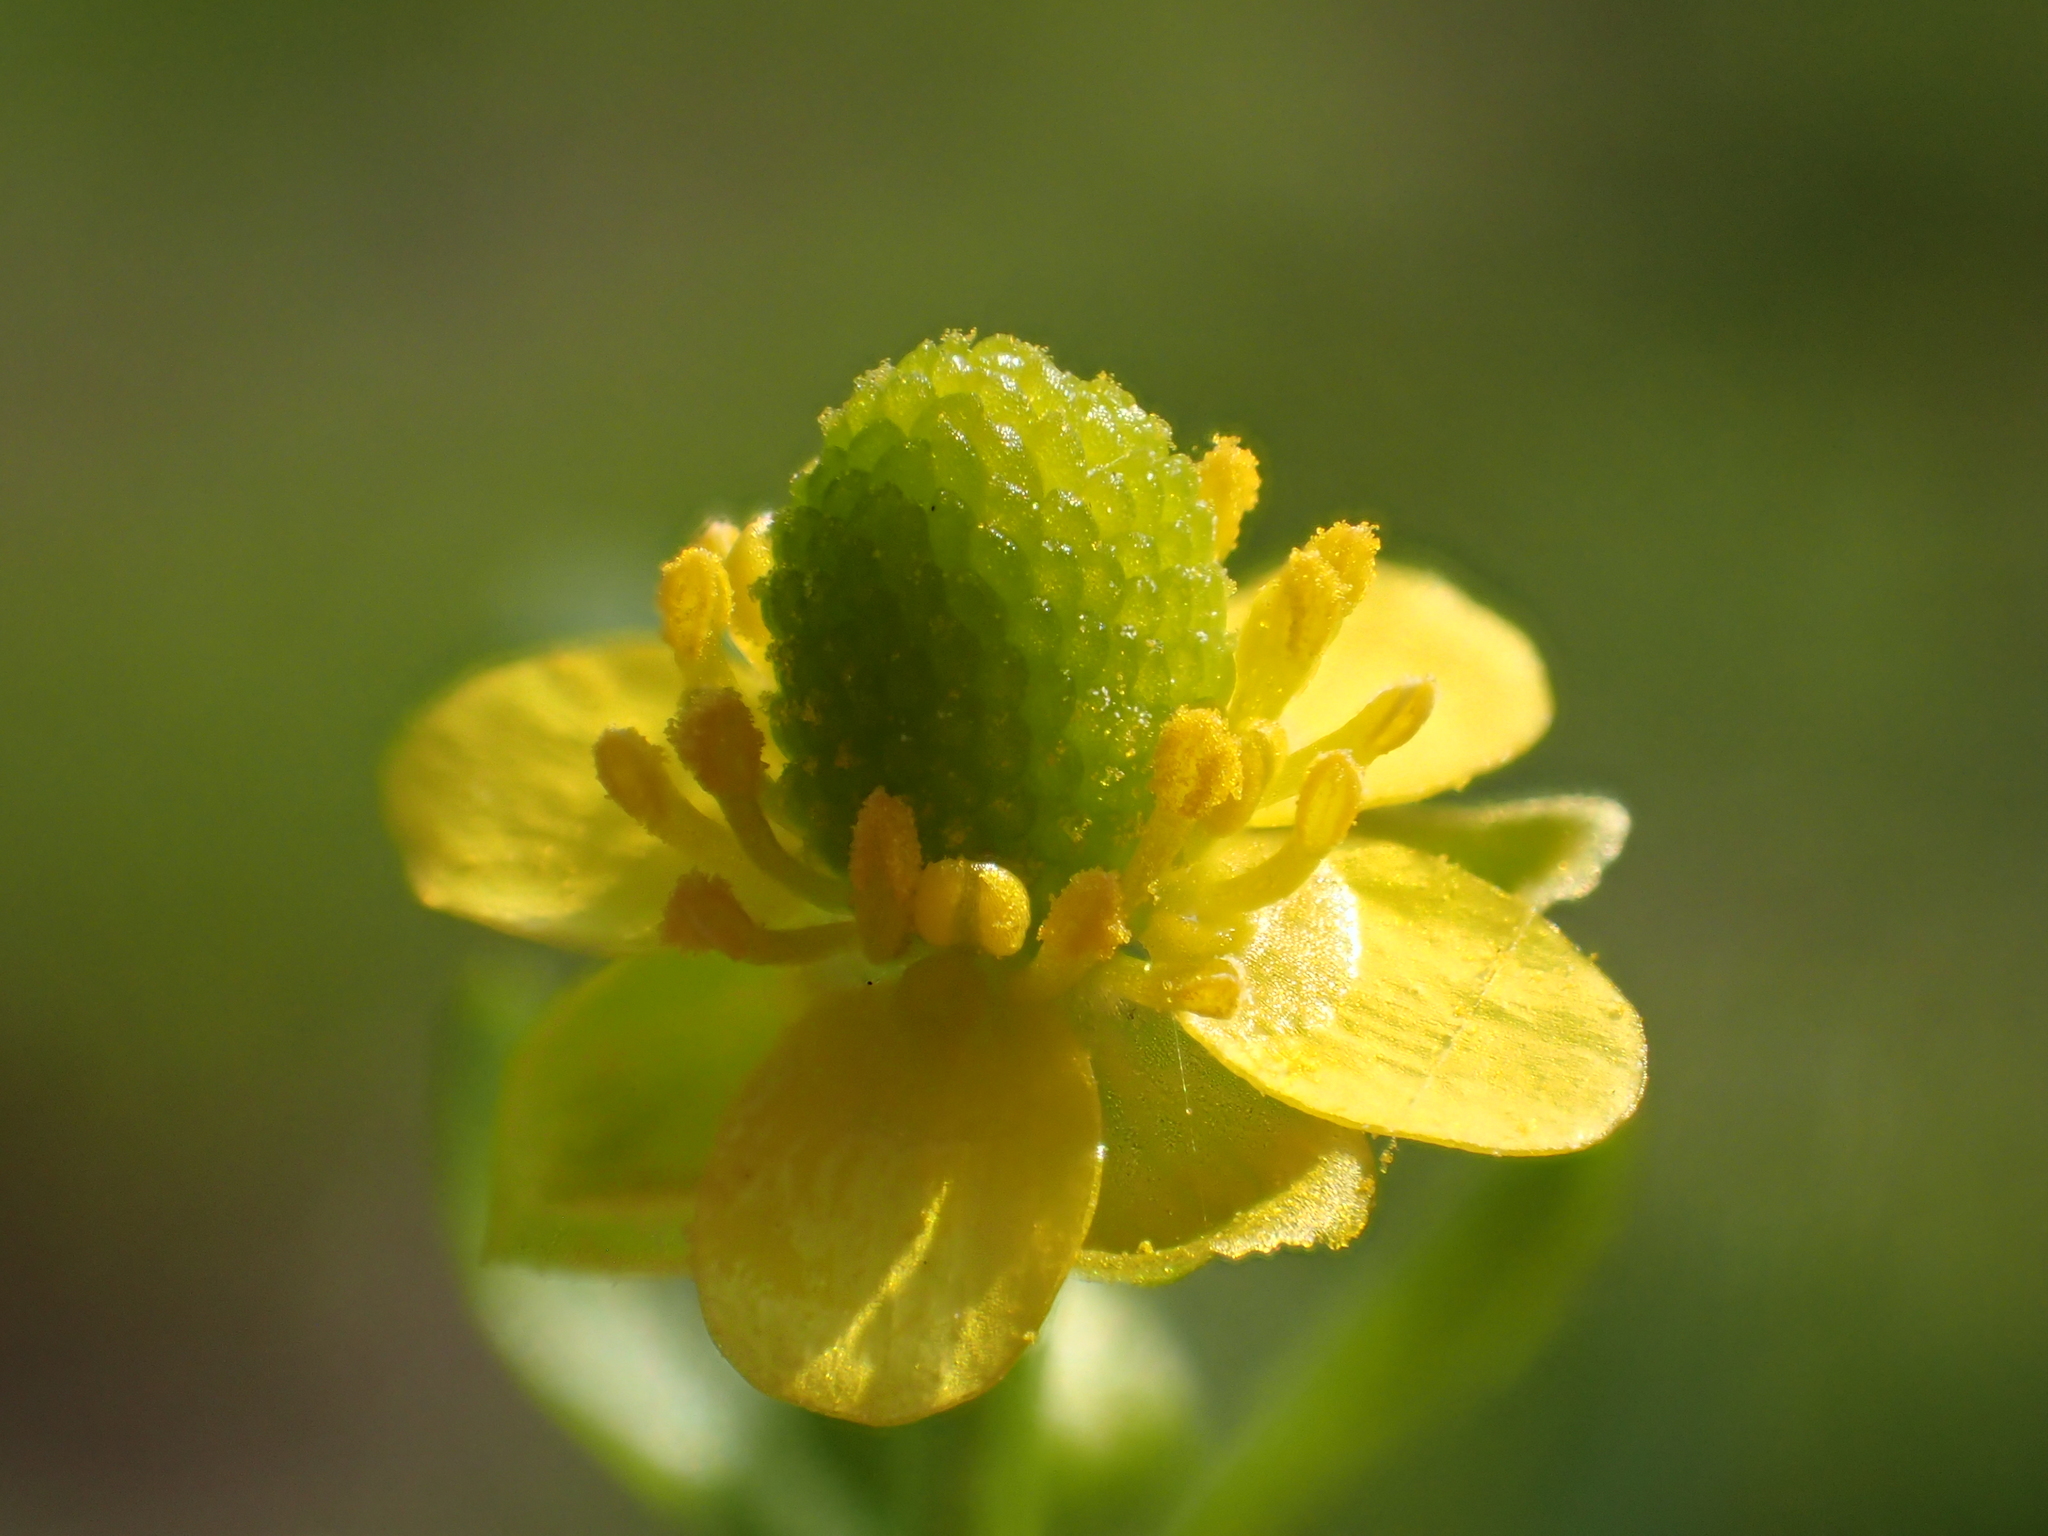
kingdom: Plantae
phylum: Tracheophyta
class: Magnoliopsida
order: Ranunculales
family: Ranunculaceae
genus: Ranunculus
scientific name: Ranunculus sceleratus
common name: Celery-leaved buttercup
